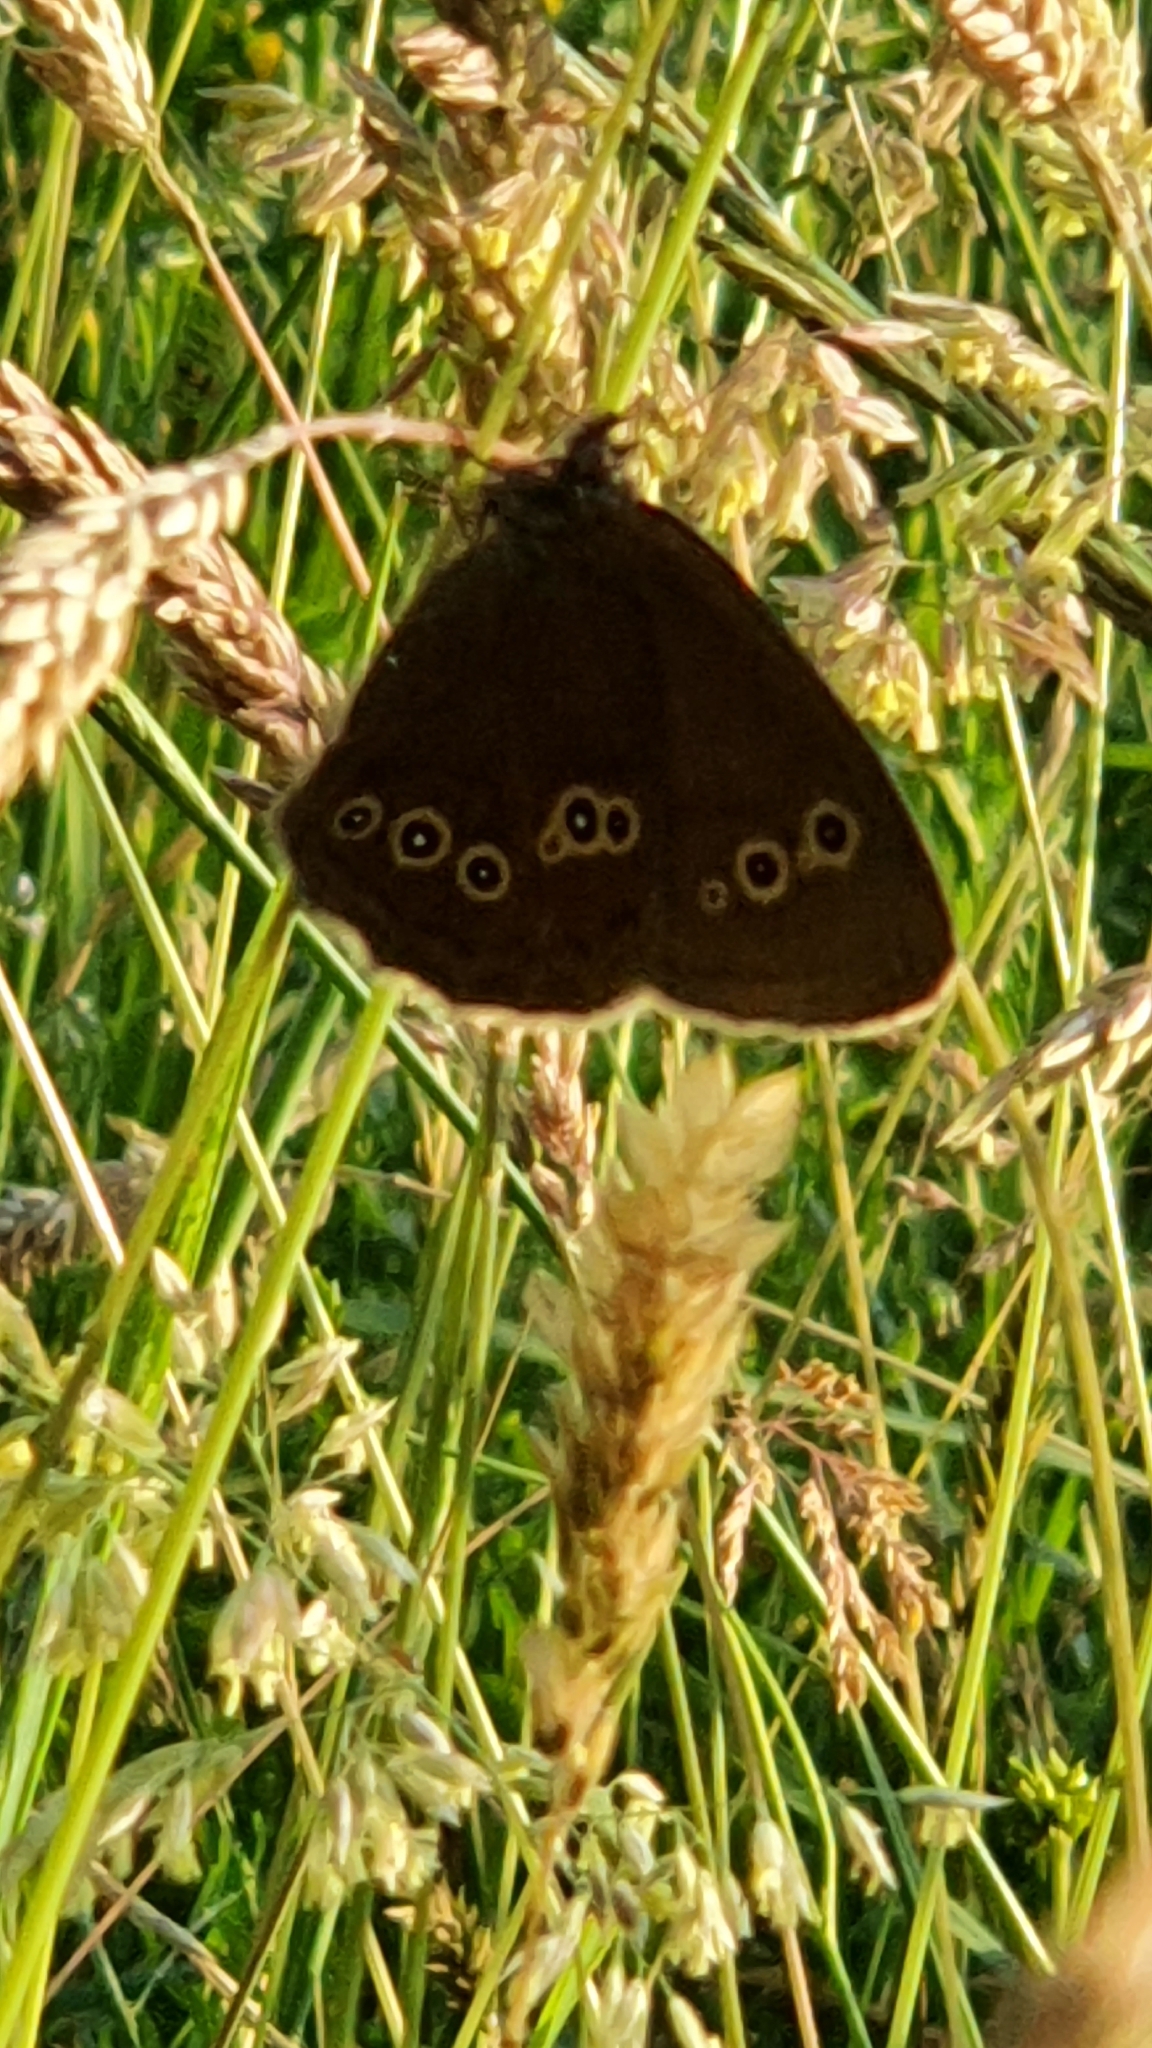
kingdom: Animalia
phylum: Arthropoda
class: Insecta
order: Lepidoptera
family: Nymphalidae
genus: Aphantopus
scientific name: Aphantopus hyperantus
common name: Ringlet
